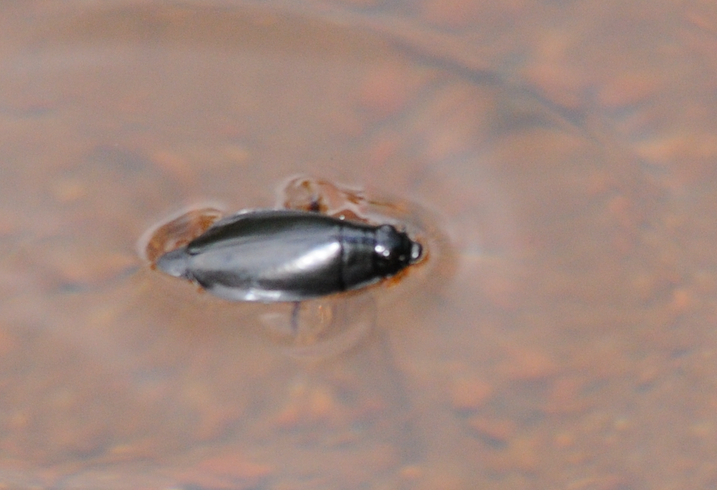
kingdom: Animalia
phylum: Arthropoda
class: Insecta
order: Coleoptera
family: Gyrinidae
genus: Dineutus
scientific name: Dineutus
